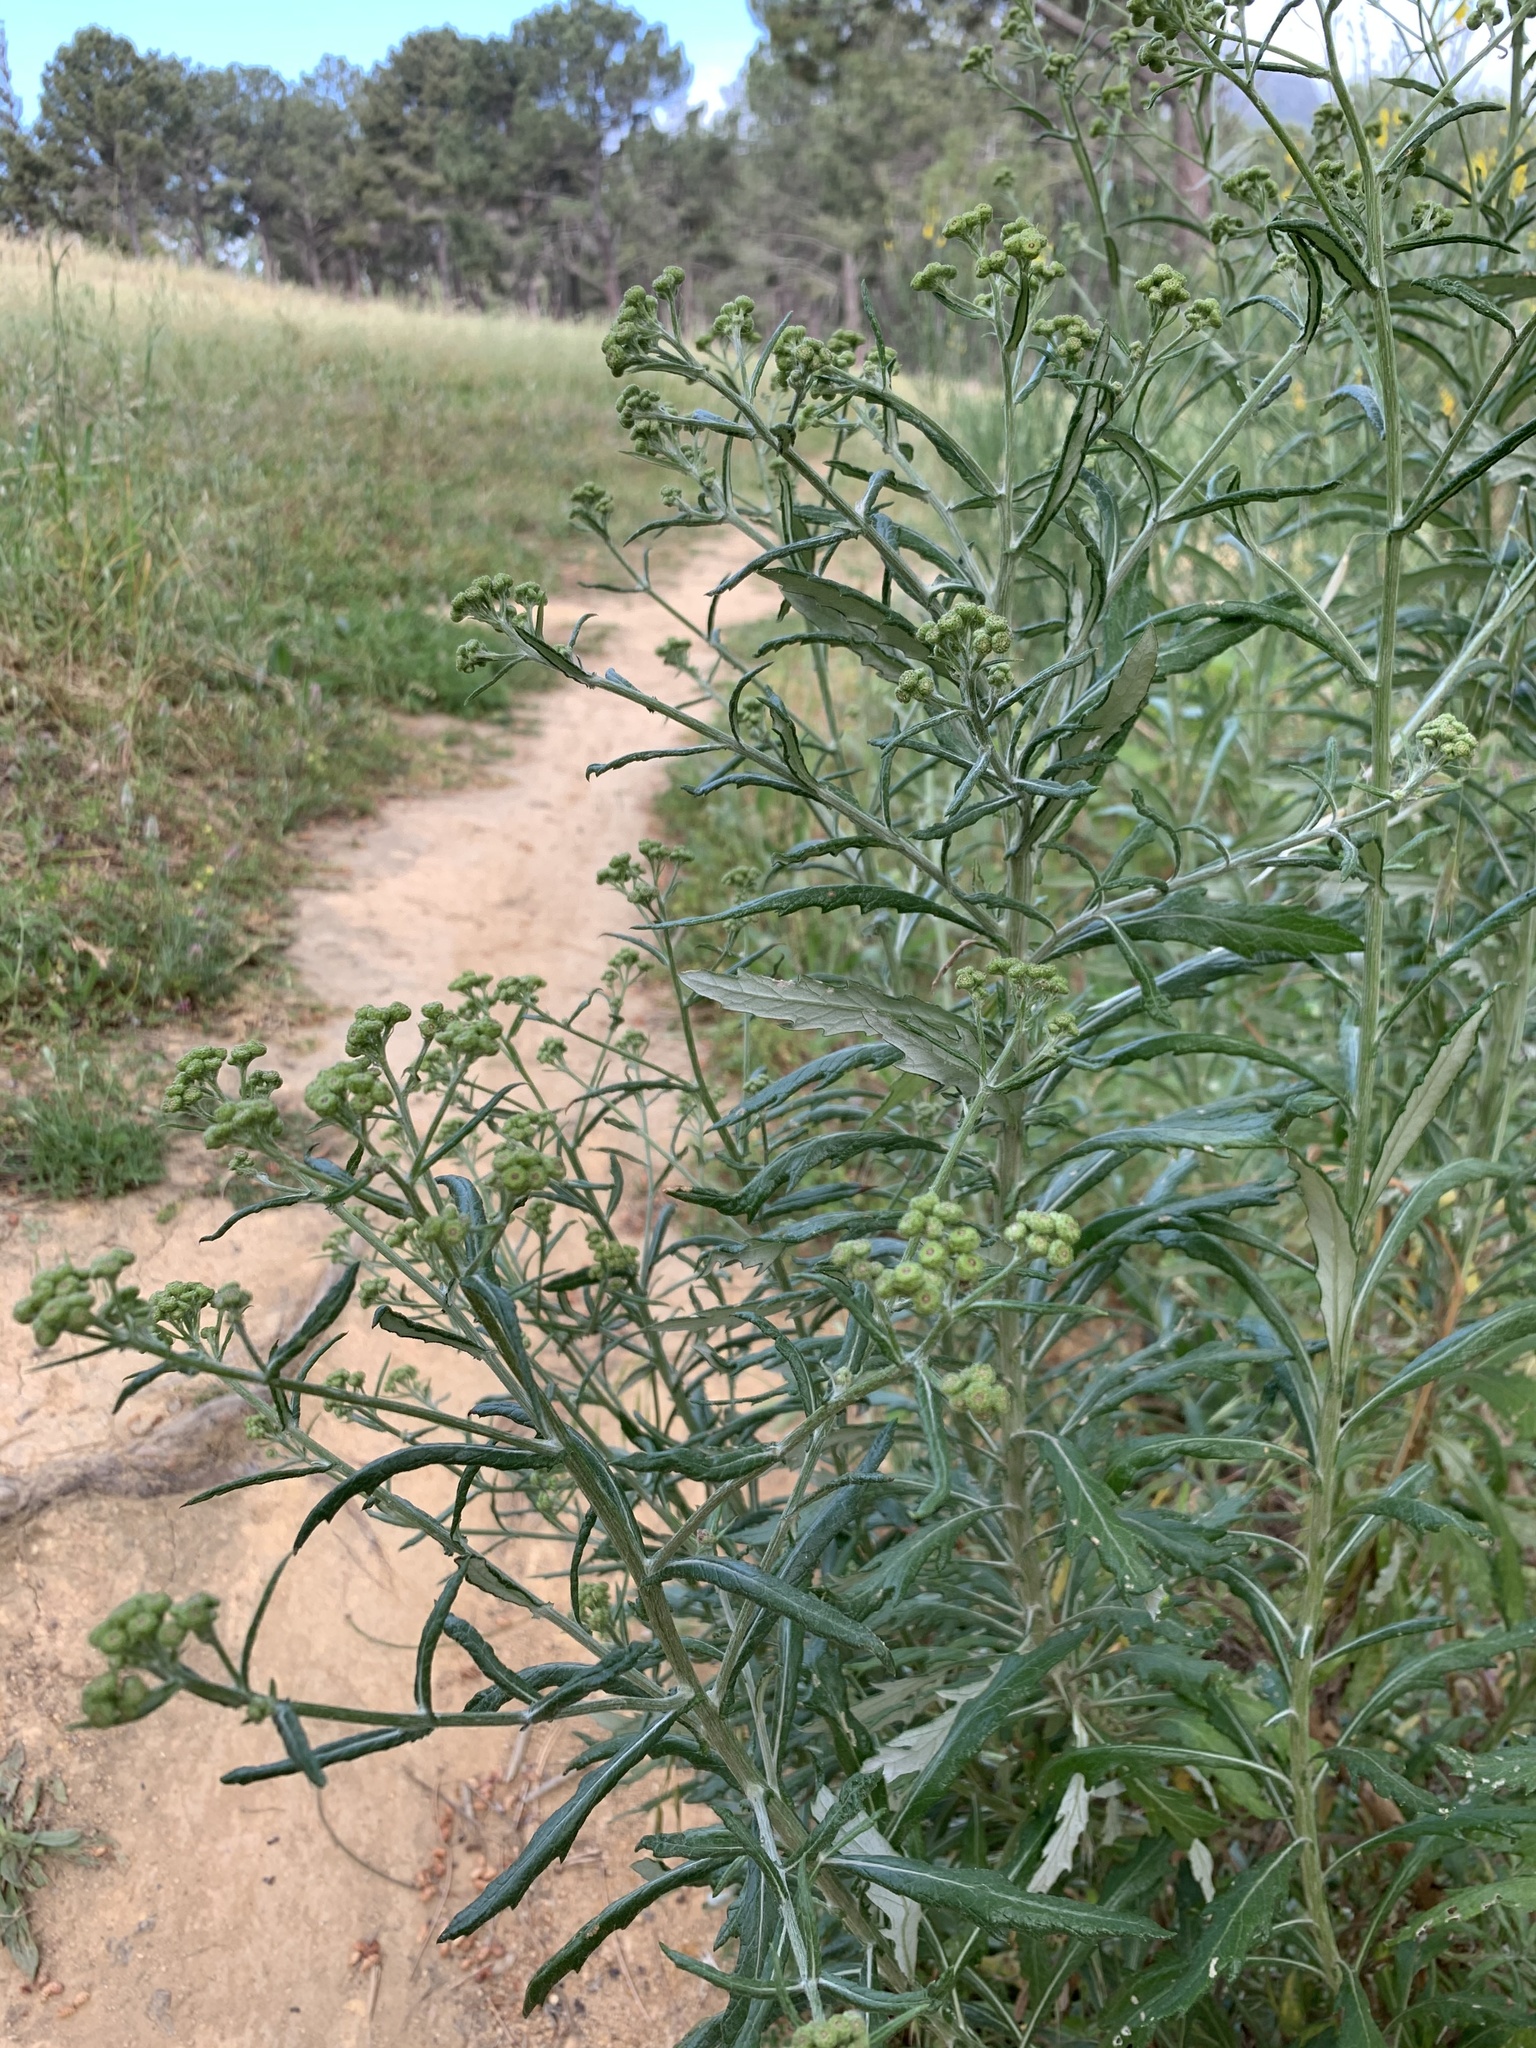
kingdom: Plantae
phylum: Tracheophyta
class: Magnoliopsida
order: Asterales
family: Asteraceae
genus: Senecio
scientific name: Senecio pterophorus
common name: Shoddy ragwort
